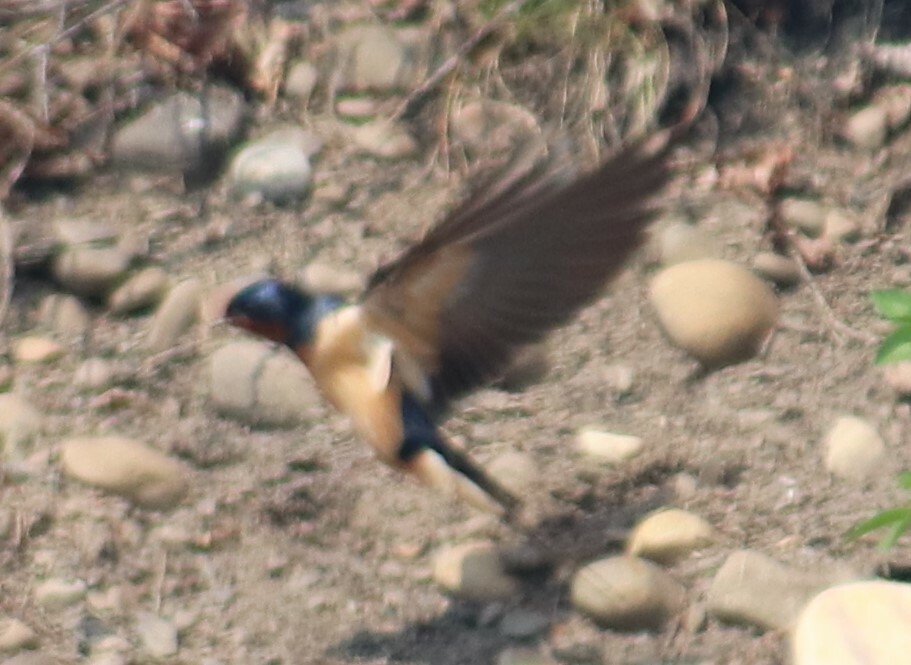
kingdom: Animalia
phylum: Chordata
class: Aves
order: Passeriformes
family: Hirundinidae
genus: Hirundo
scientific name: Hirundo rustica
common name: Barn swallow
